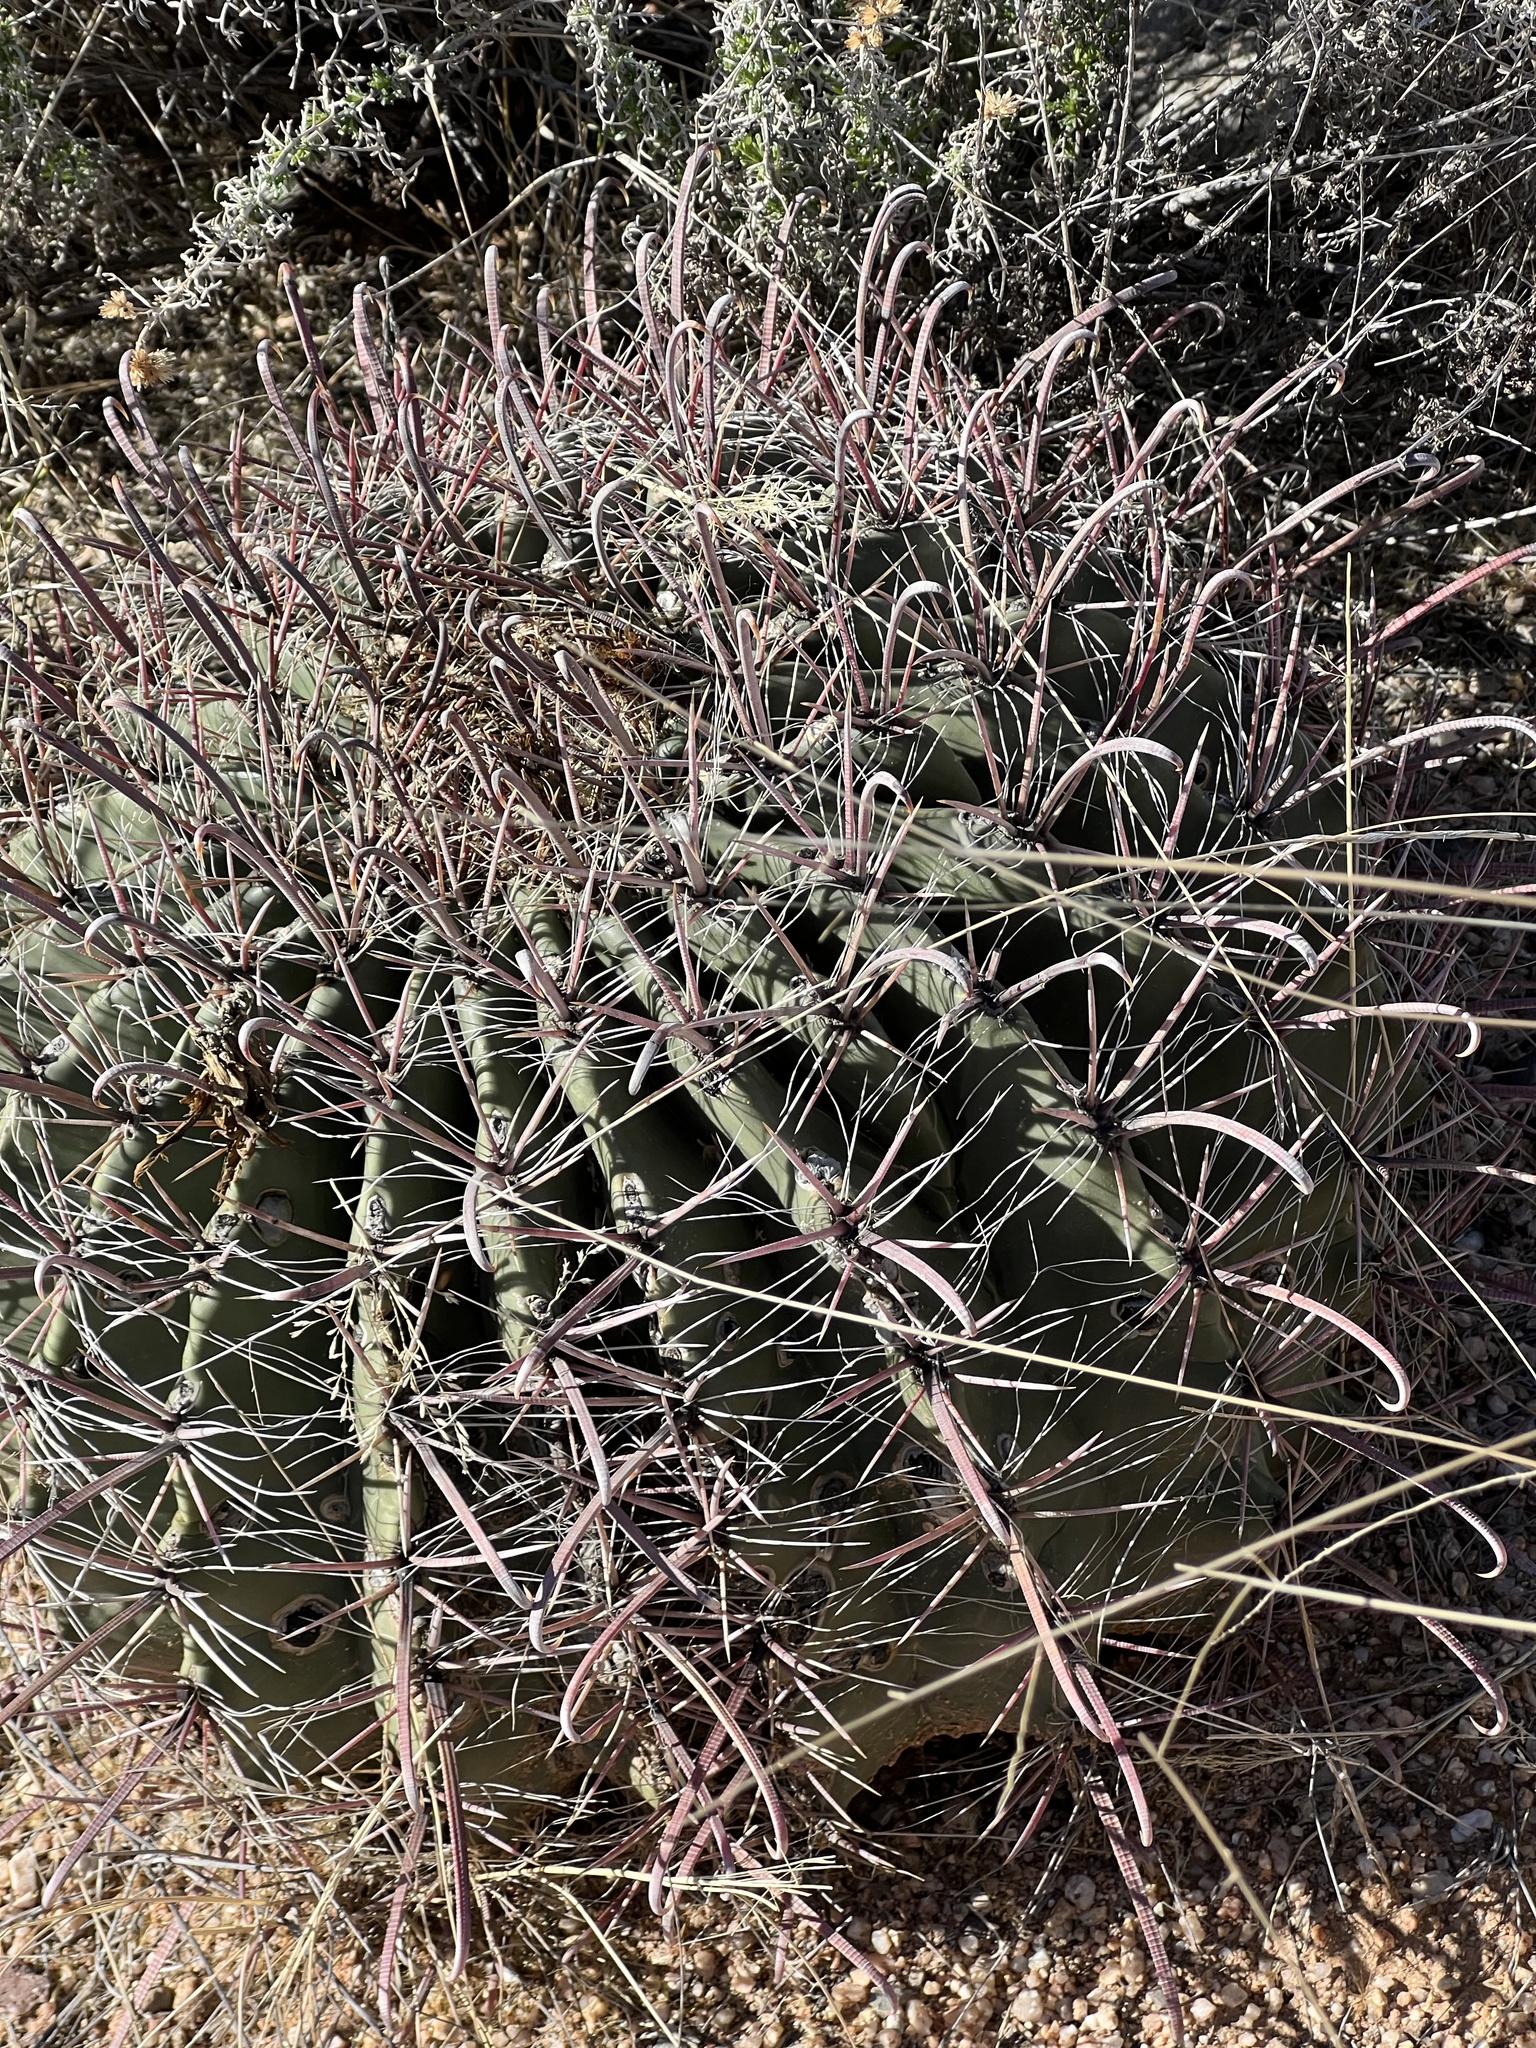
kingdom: Plantae
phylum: Tracheophyta
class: Magnoliopsida
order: Caryophyllales
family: Cactaceae
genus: Ferocactus
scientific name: Ferocactus wislizeni
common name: Candy barrel cactus
